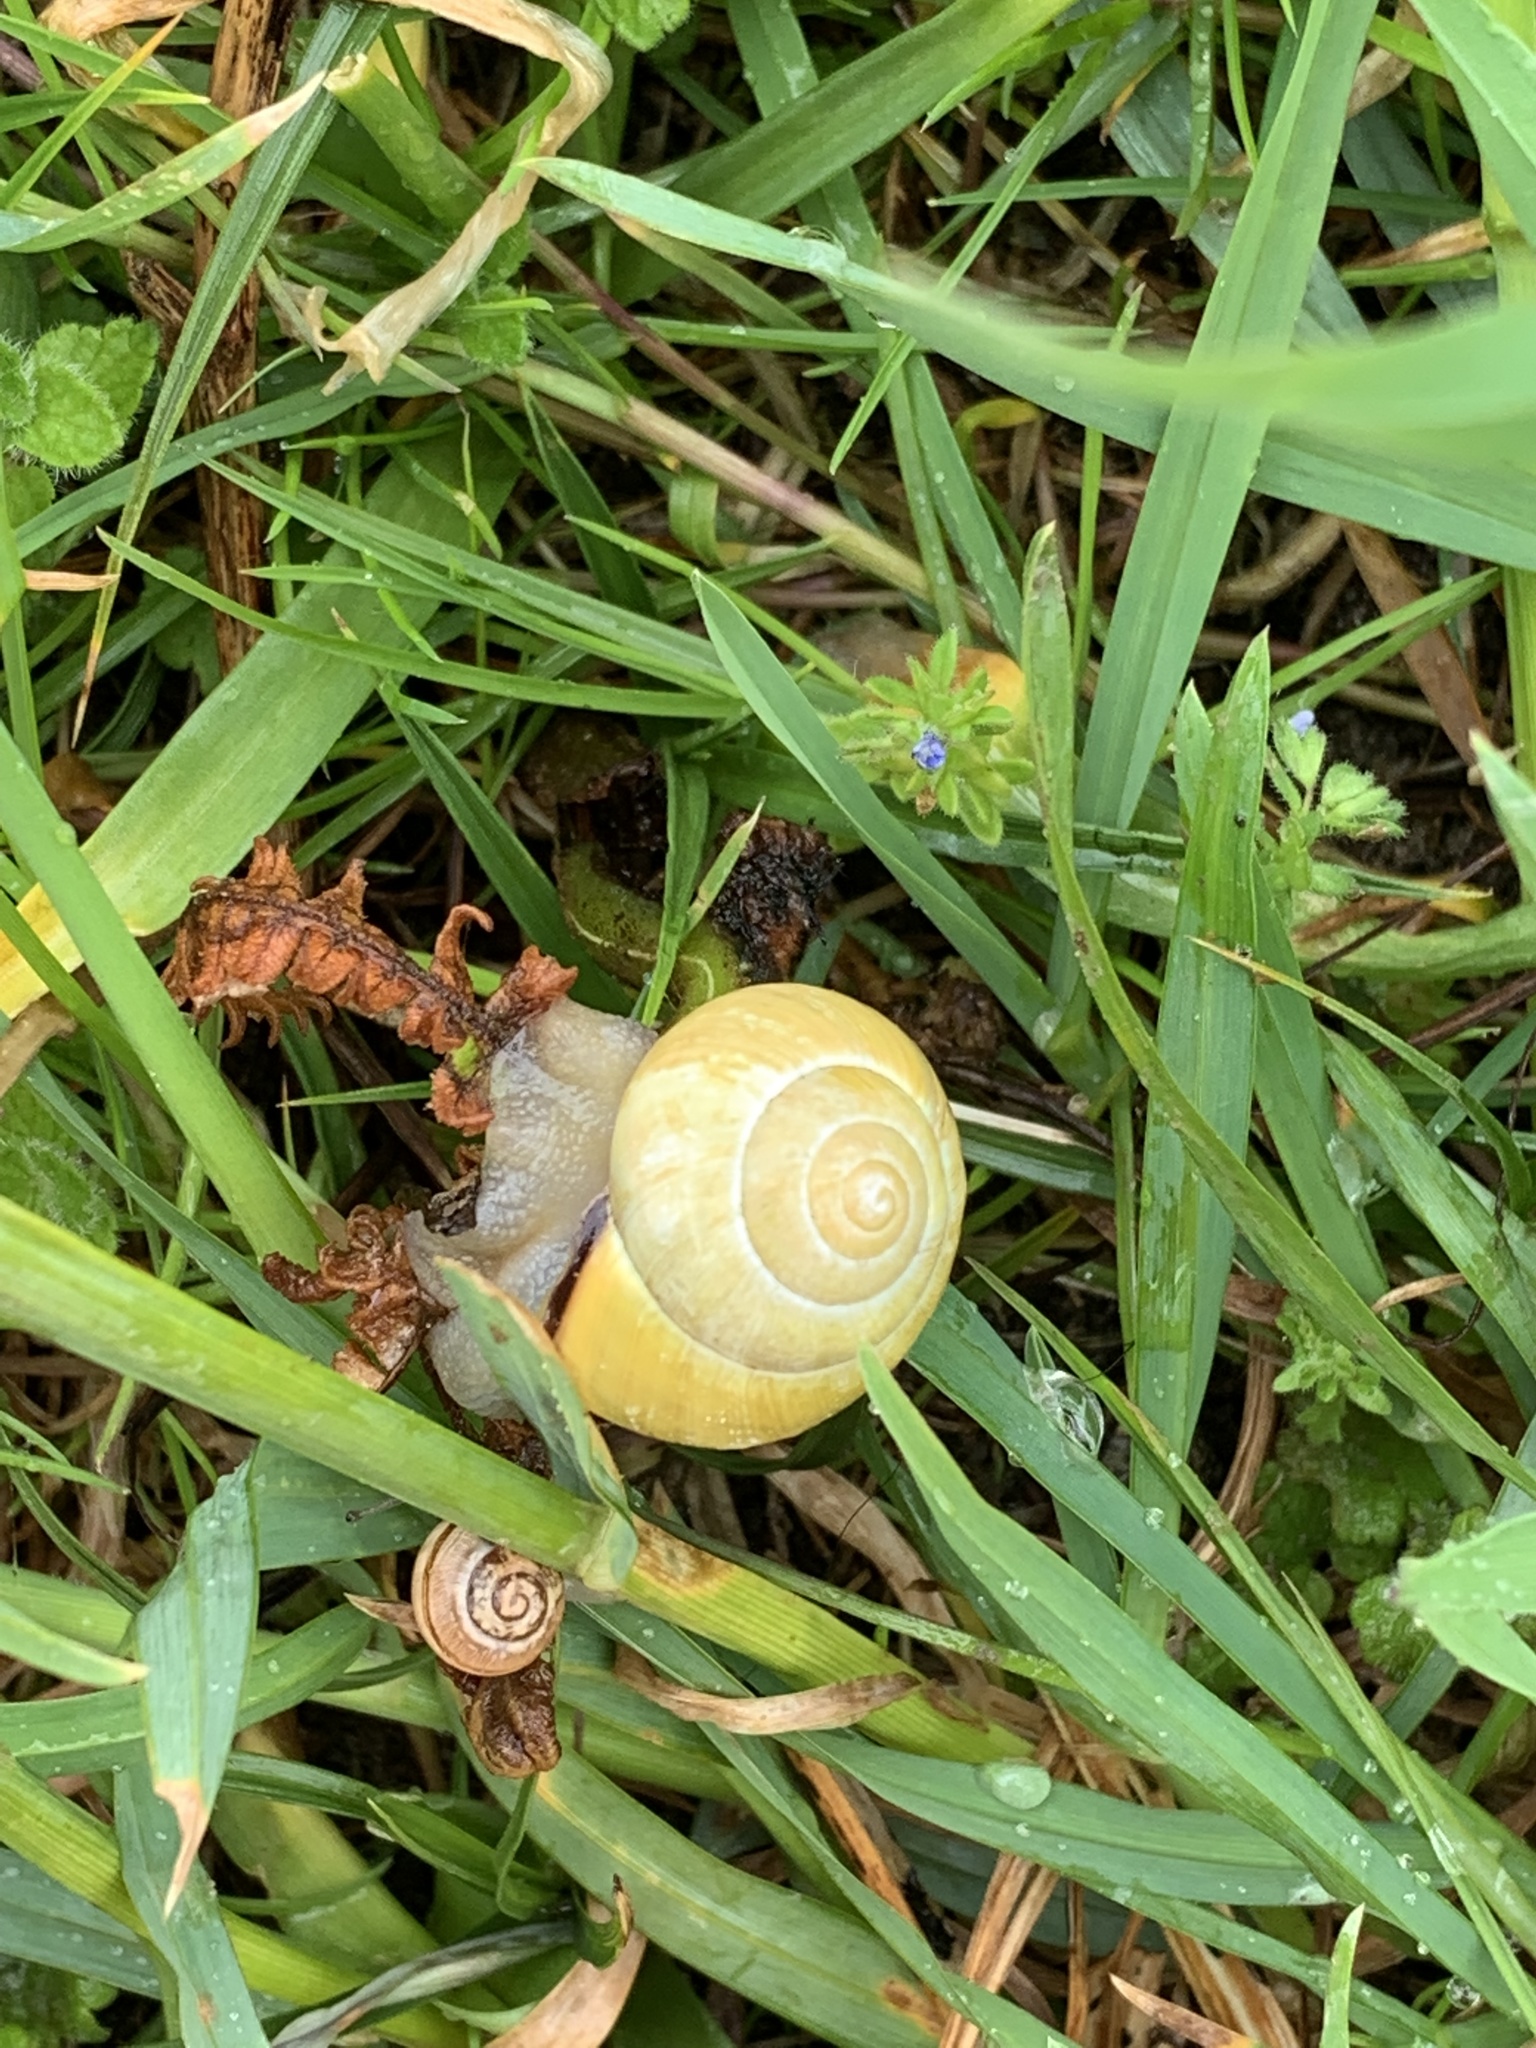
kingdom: Animalia
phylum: Mollusca
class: Gastropoda
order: Stylommatophora
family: Helicidae
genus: Cepaea
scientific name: Cepaea nemoralis
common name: Grovesnail
